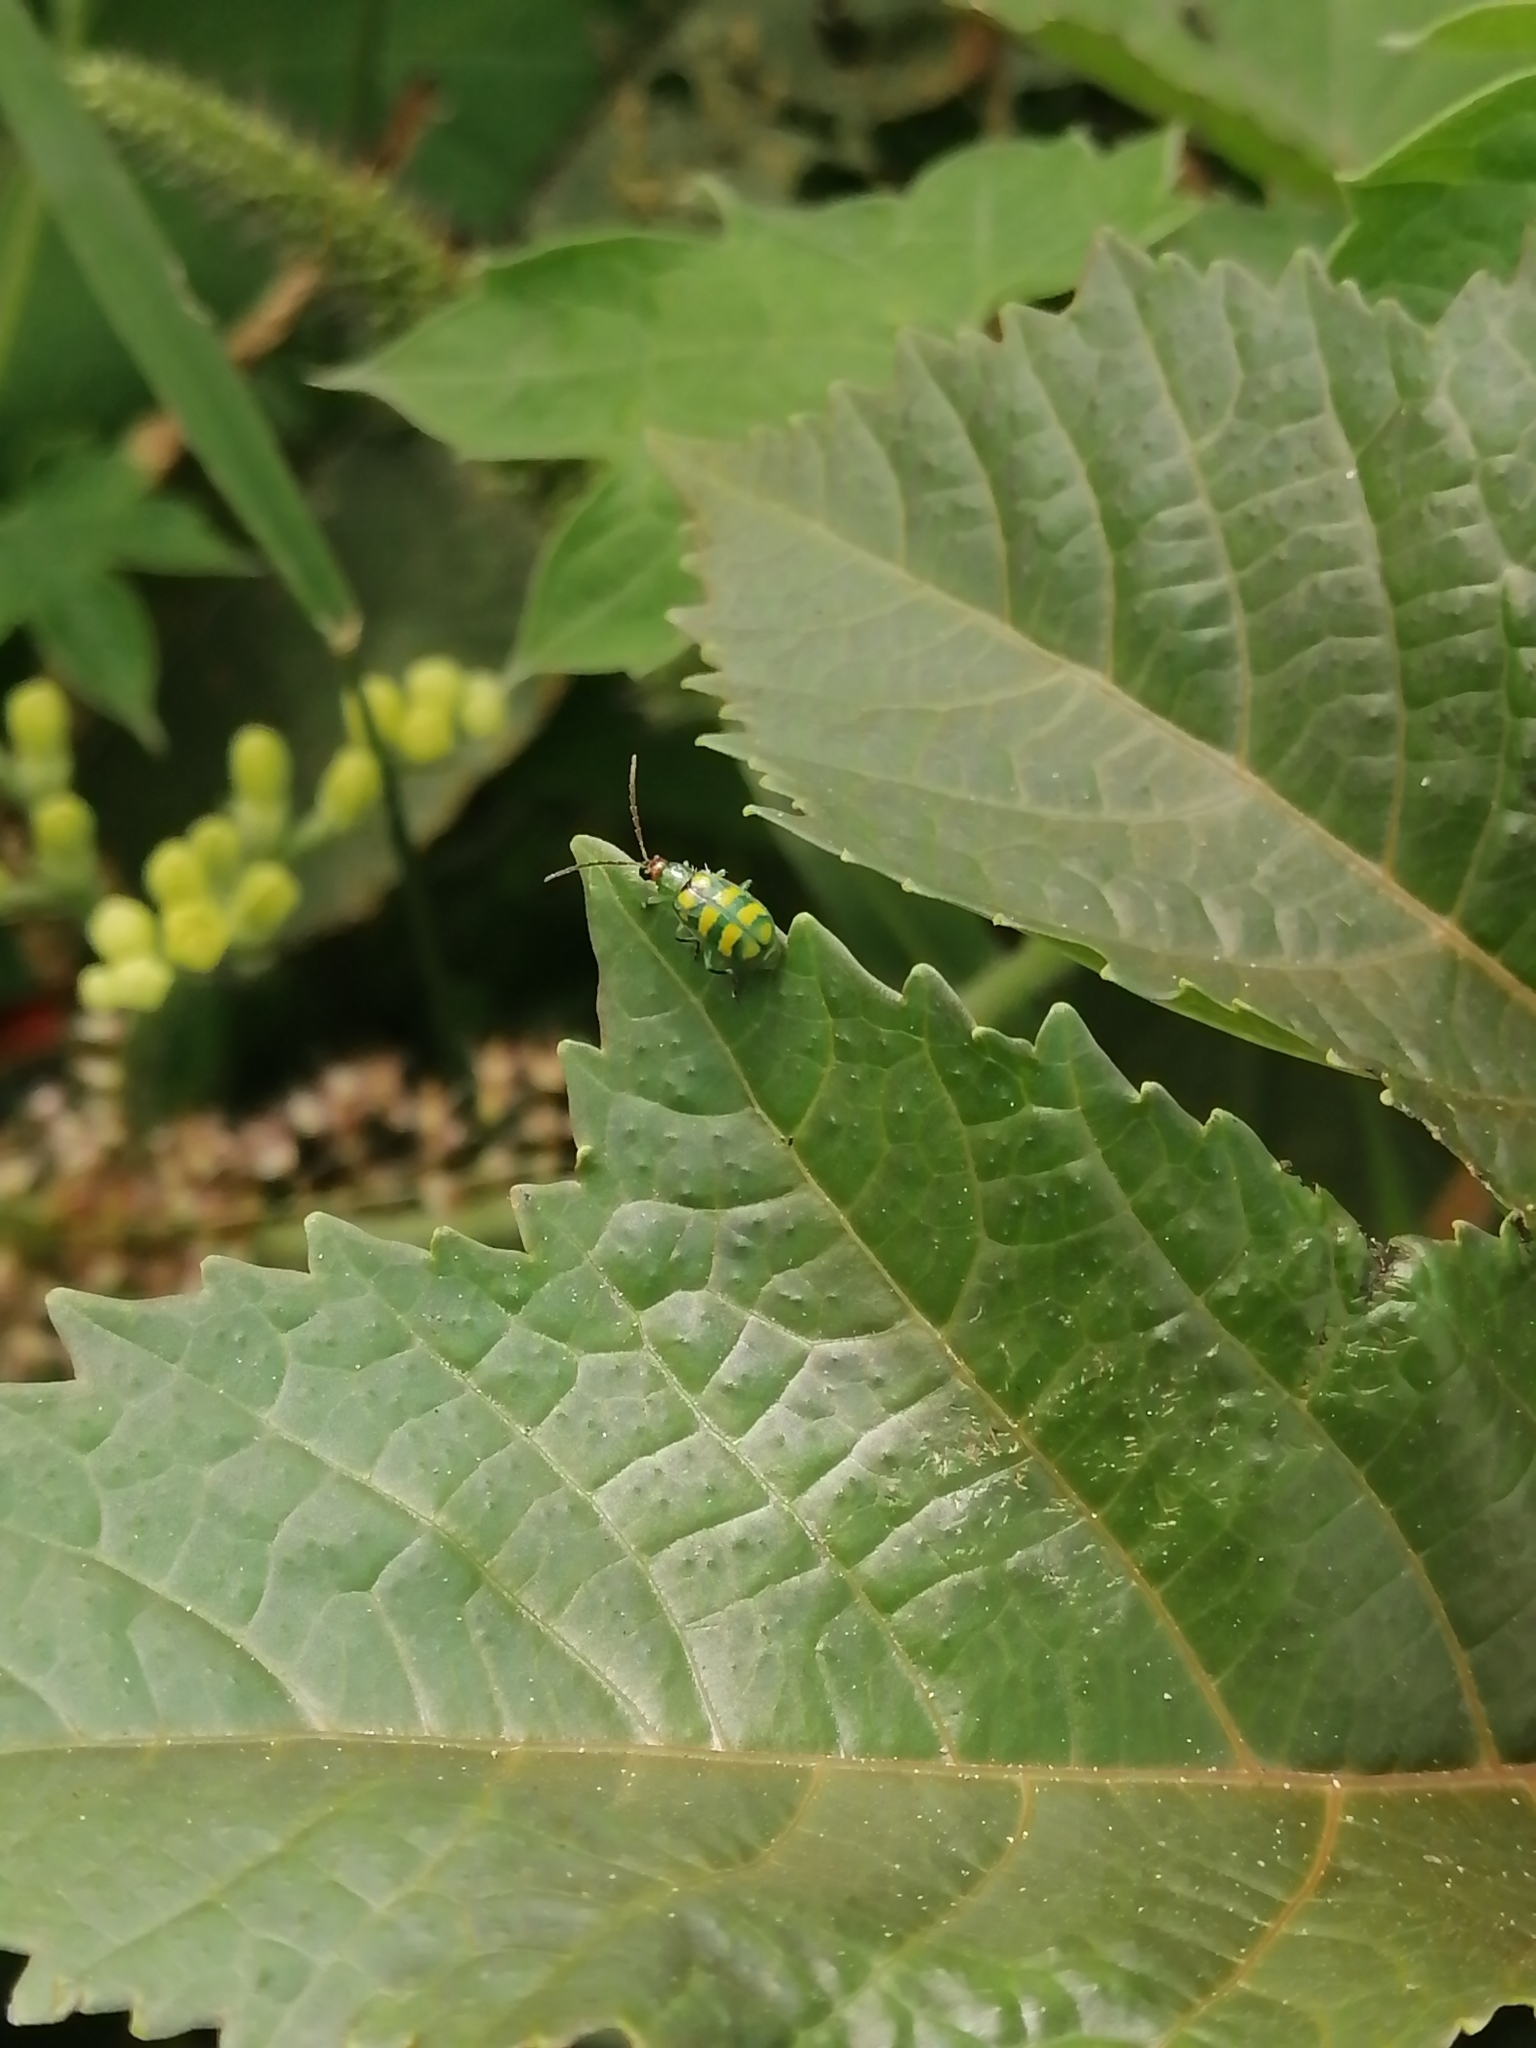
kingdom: Animalia
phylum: Arthropoda
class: Insecta
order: Coleoptera
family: Chrysomelidae
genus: Diabrotica
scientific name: Diabrotica balteata
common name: Leaf beetle
